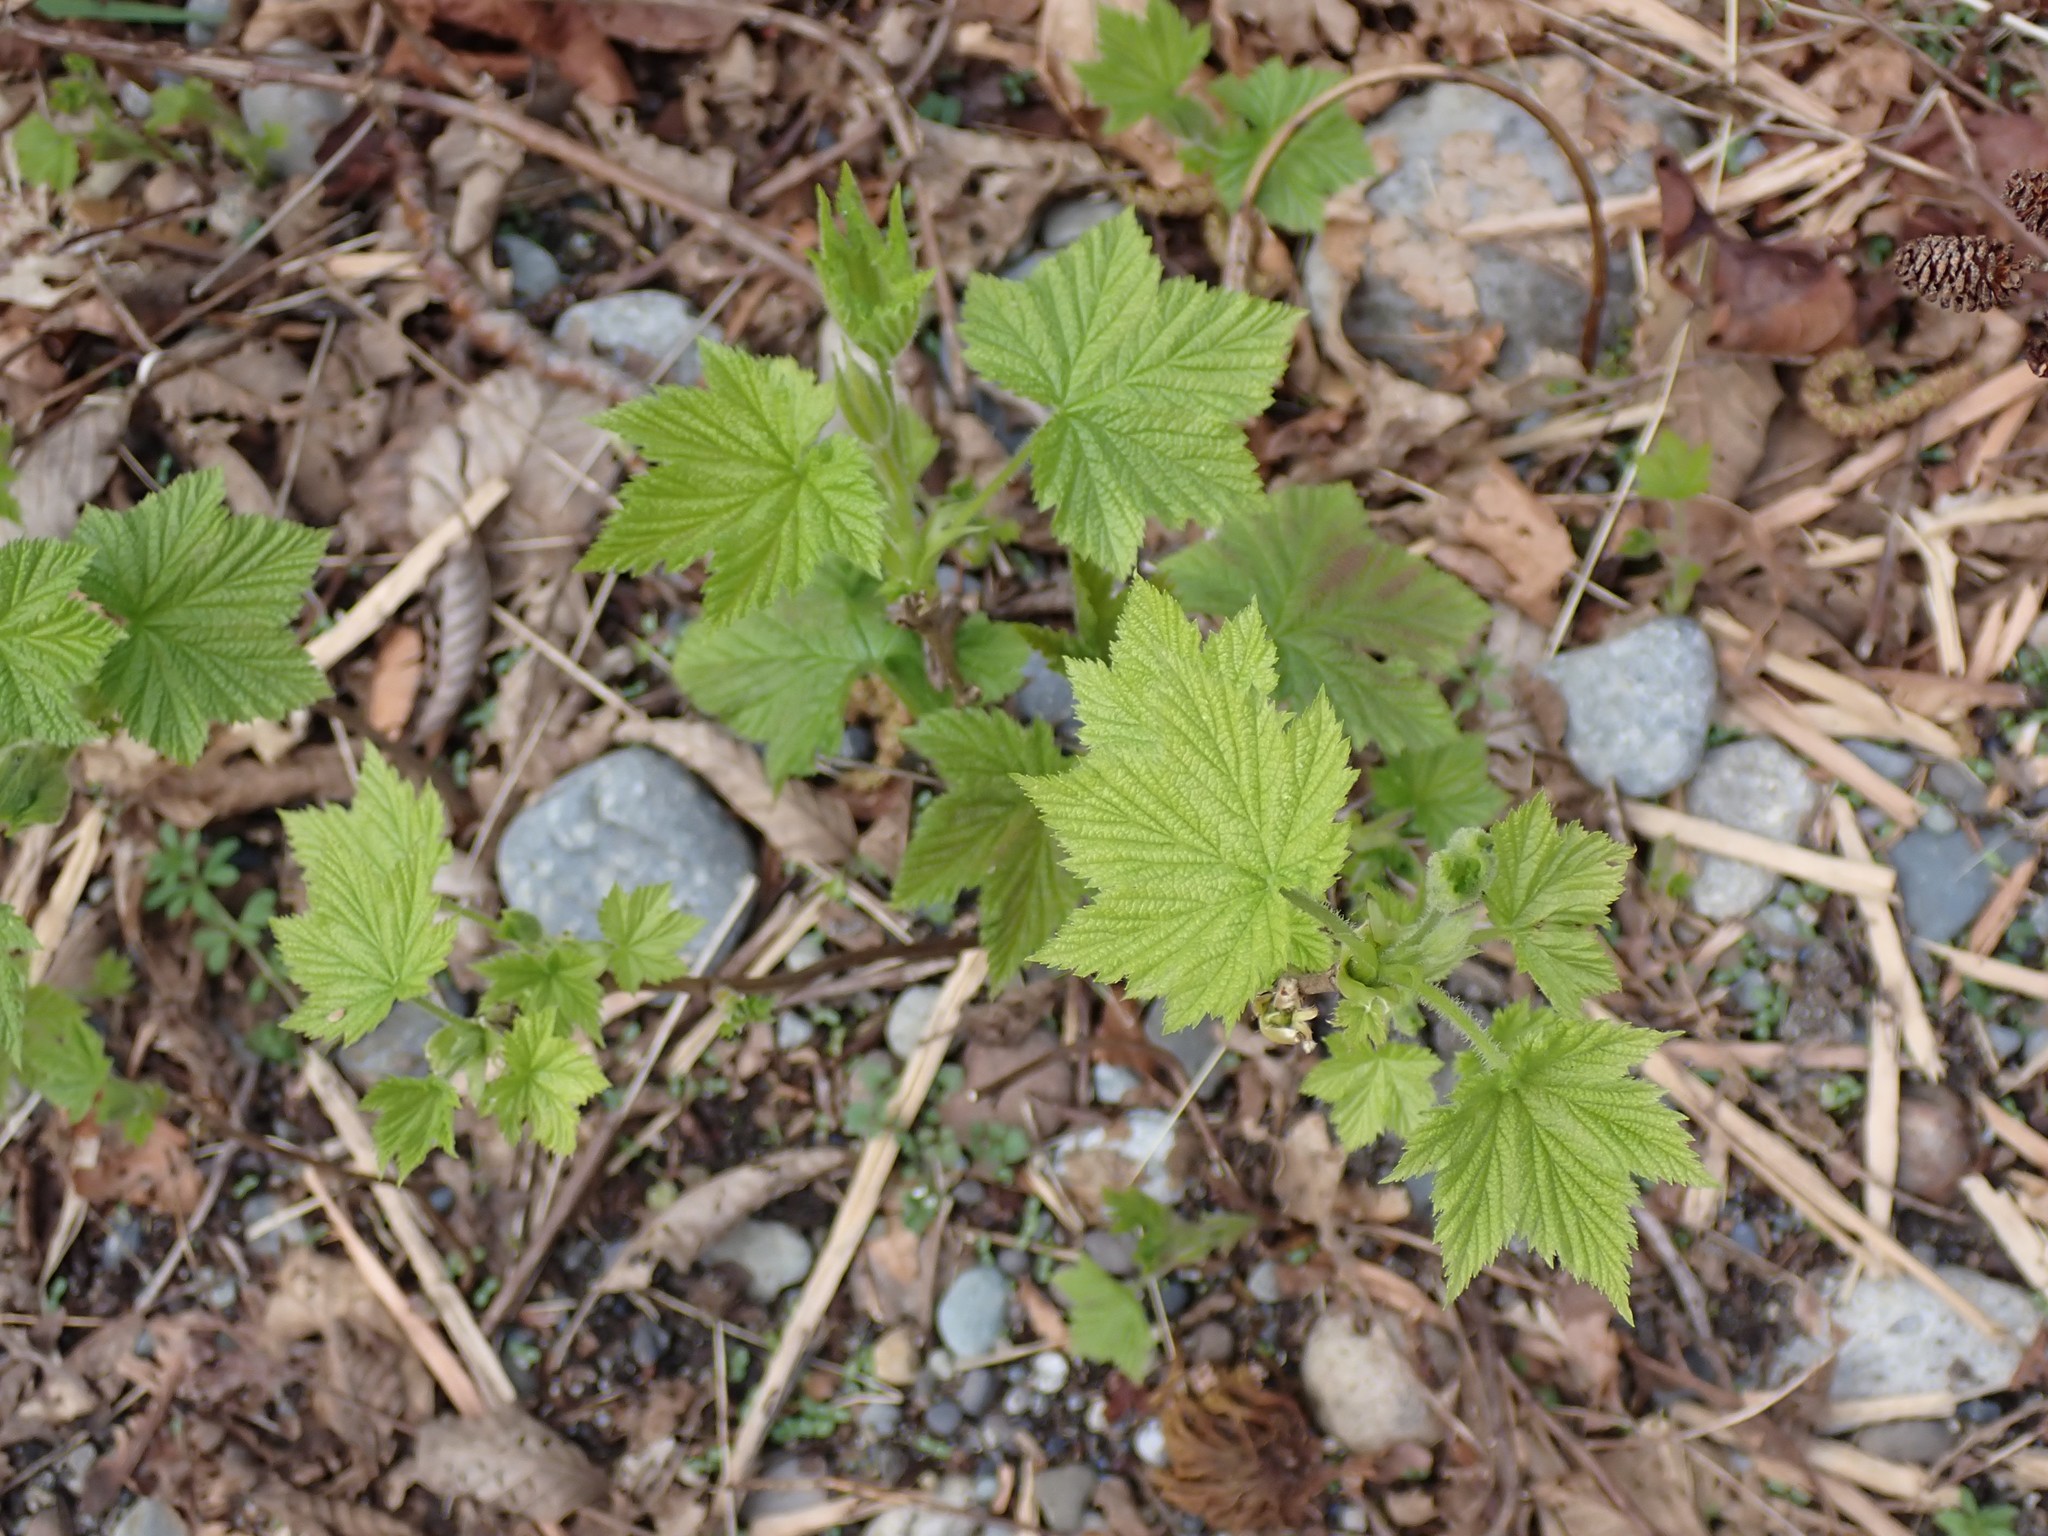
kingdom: Plantae
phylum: Tracheophyta
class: Magnoliopsida
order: Rosales
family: Rosaceae
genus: Rubus
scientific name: Rubus parviflorus
